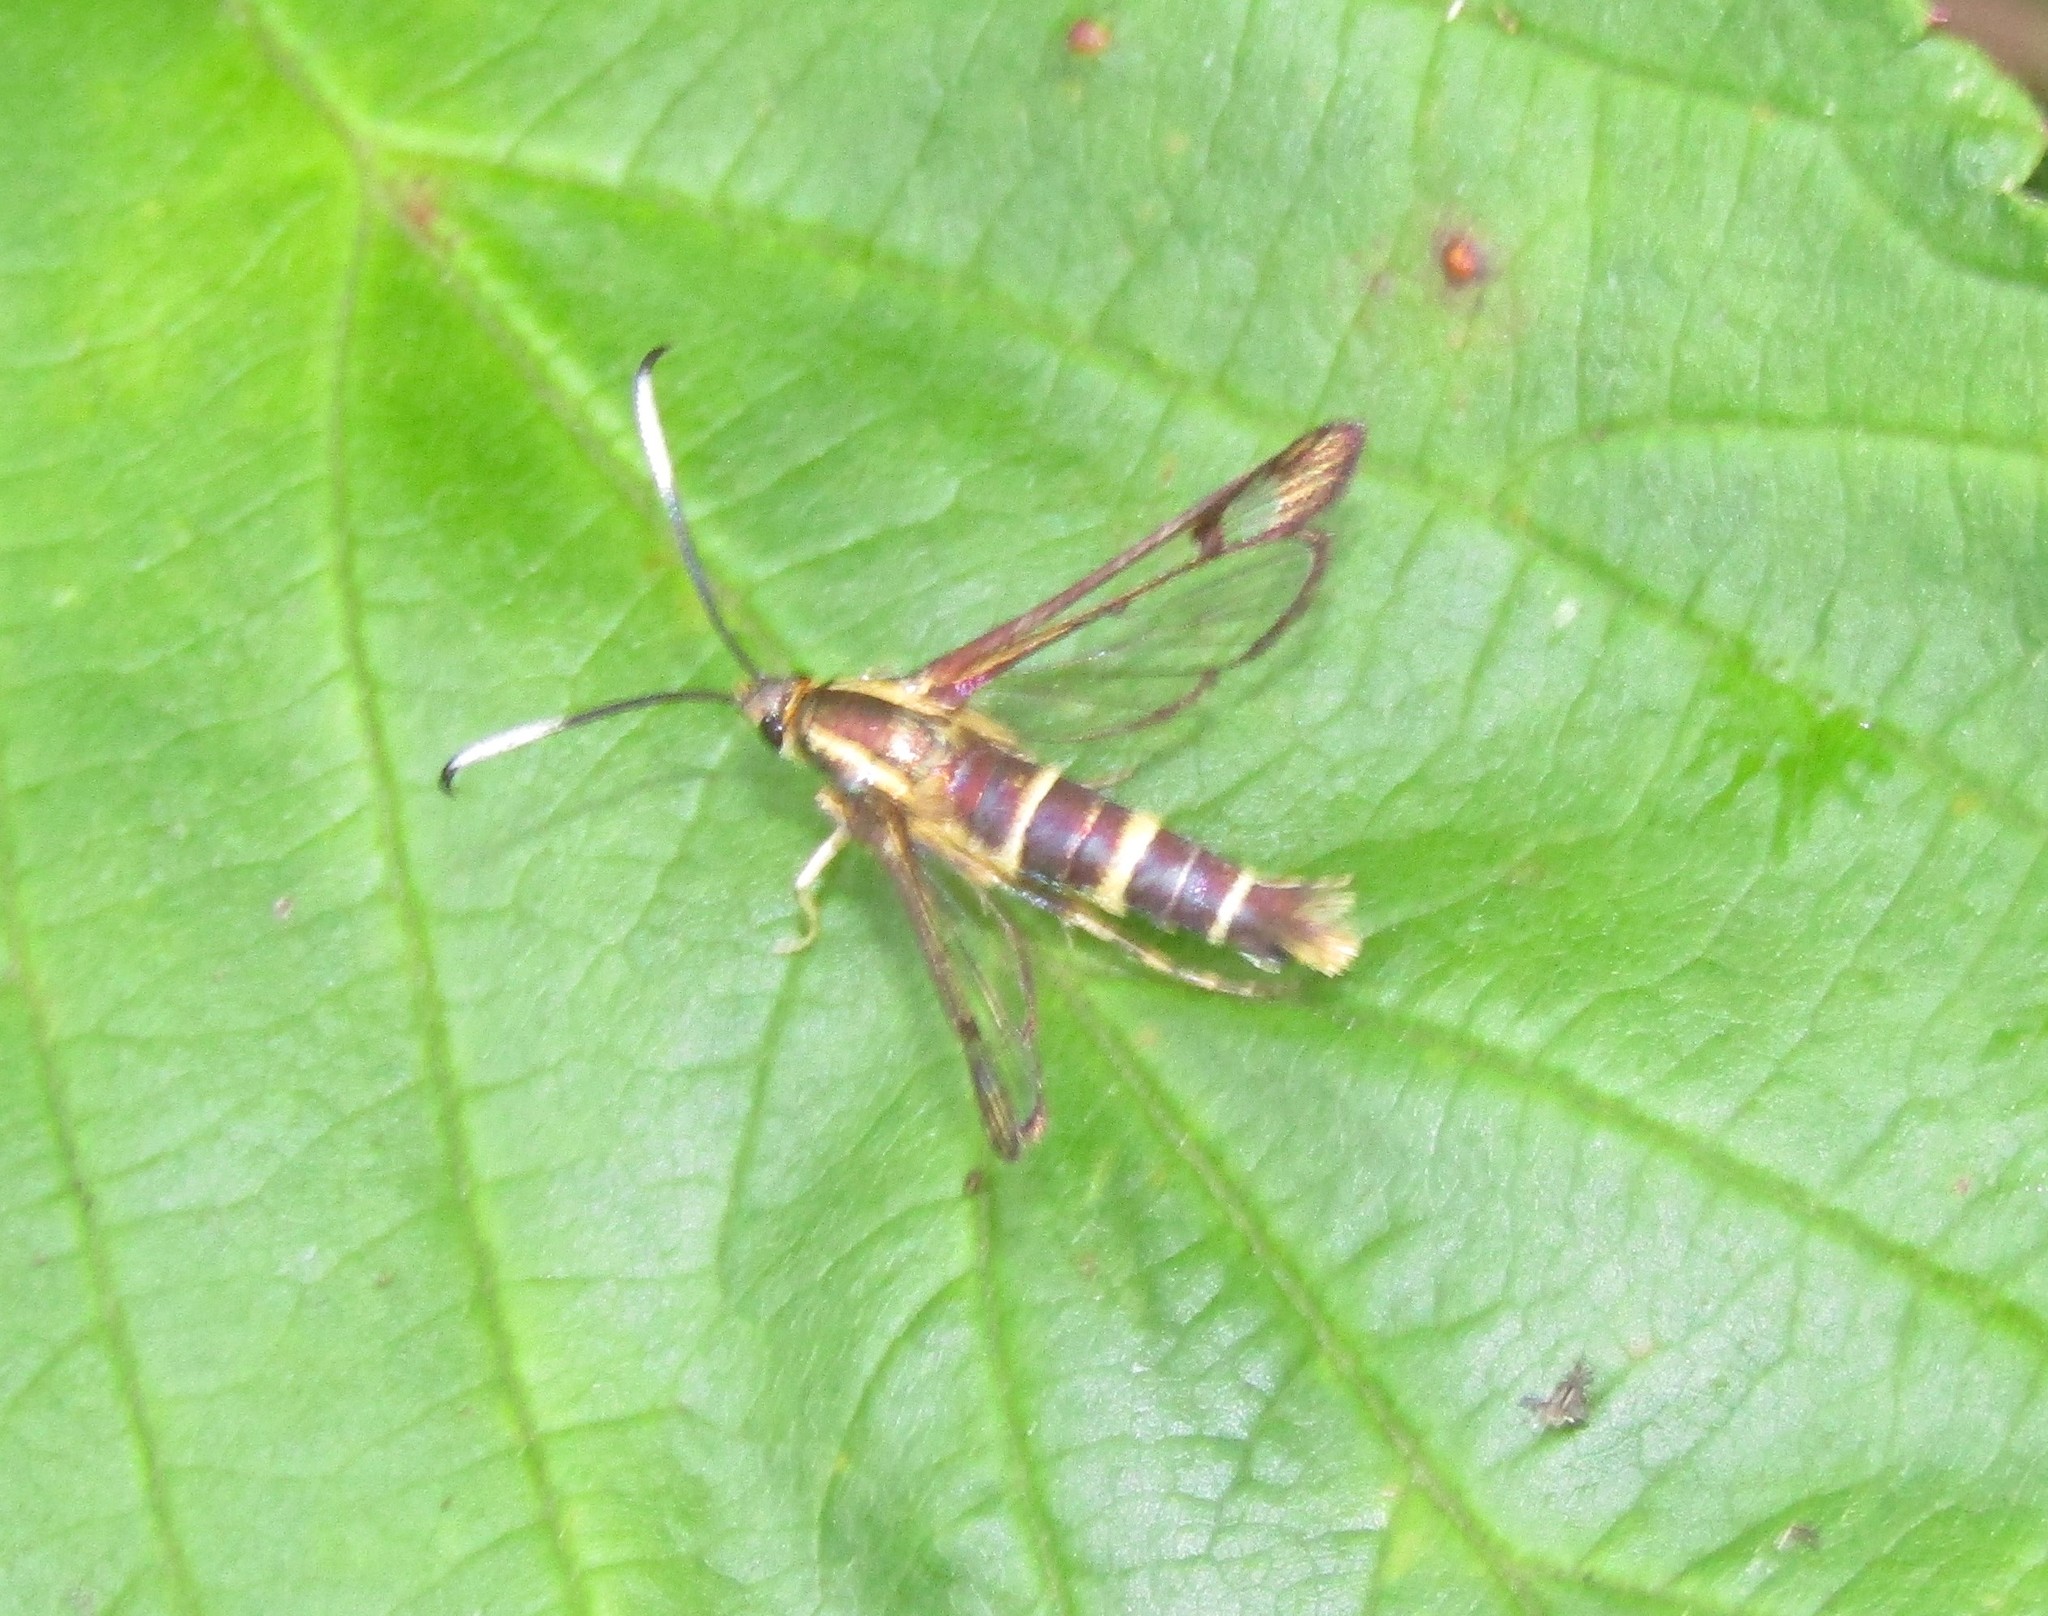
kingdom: Animalia
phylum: Arthropoda
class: Insecta
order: Lepidoptera
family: Sesiidae
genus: Carmenta
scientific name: Carmenta bassiformis
